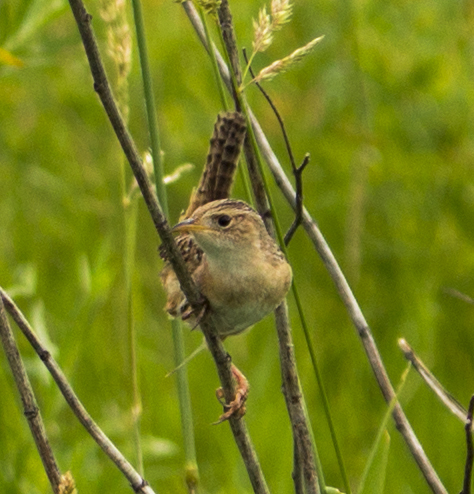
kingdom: Animalia
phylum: Chordata
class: Aves
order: Passeriformes
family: Troglodytidae
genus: Cistothorus
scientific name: Cistothorus platensis
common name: Sedge wren
